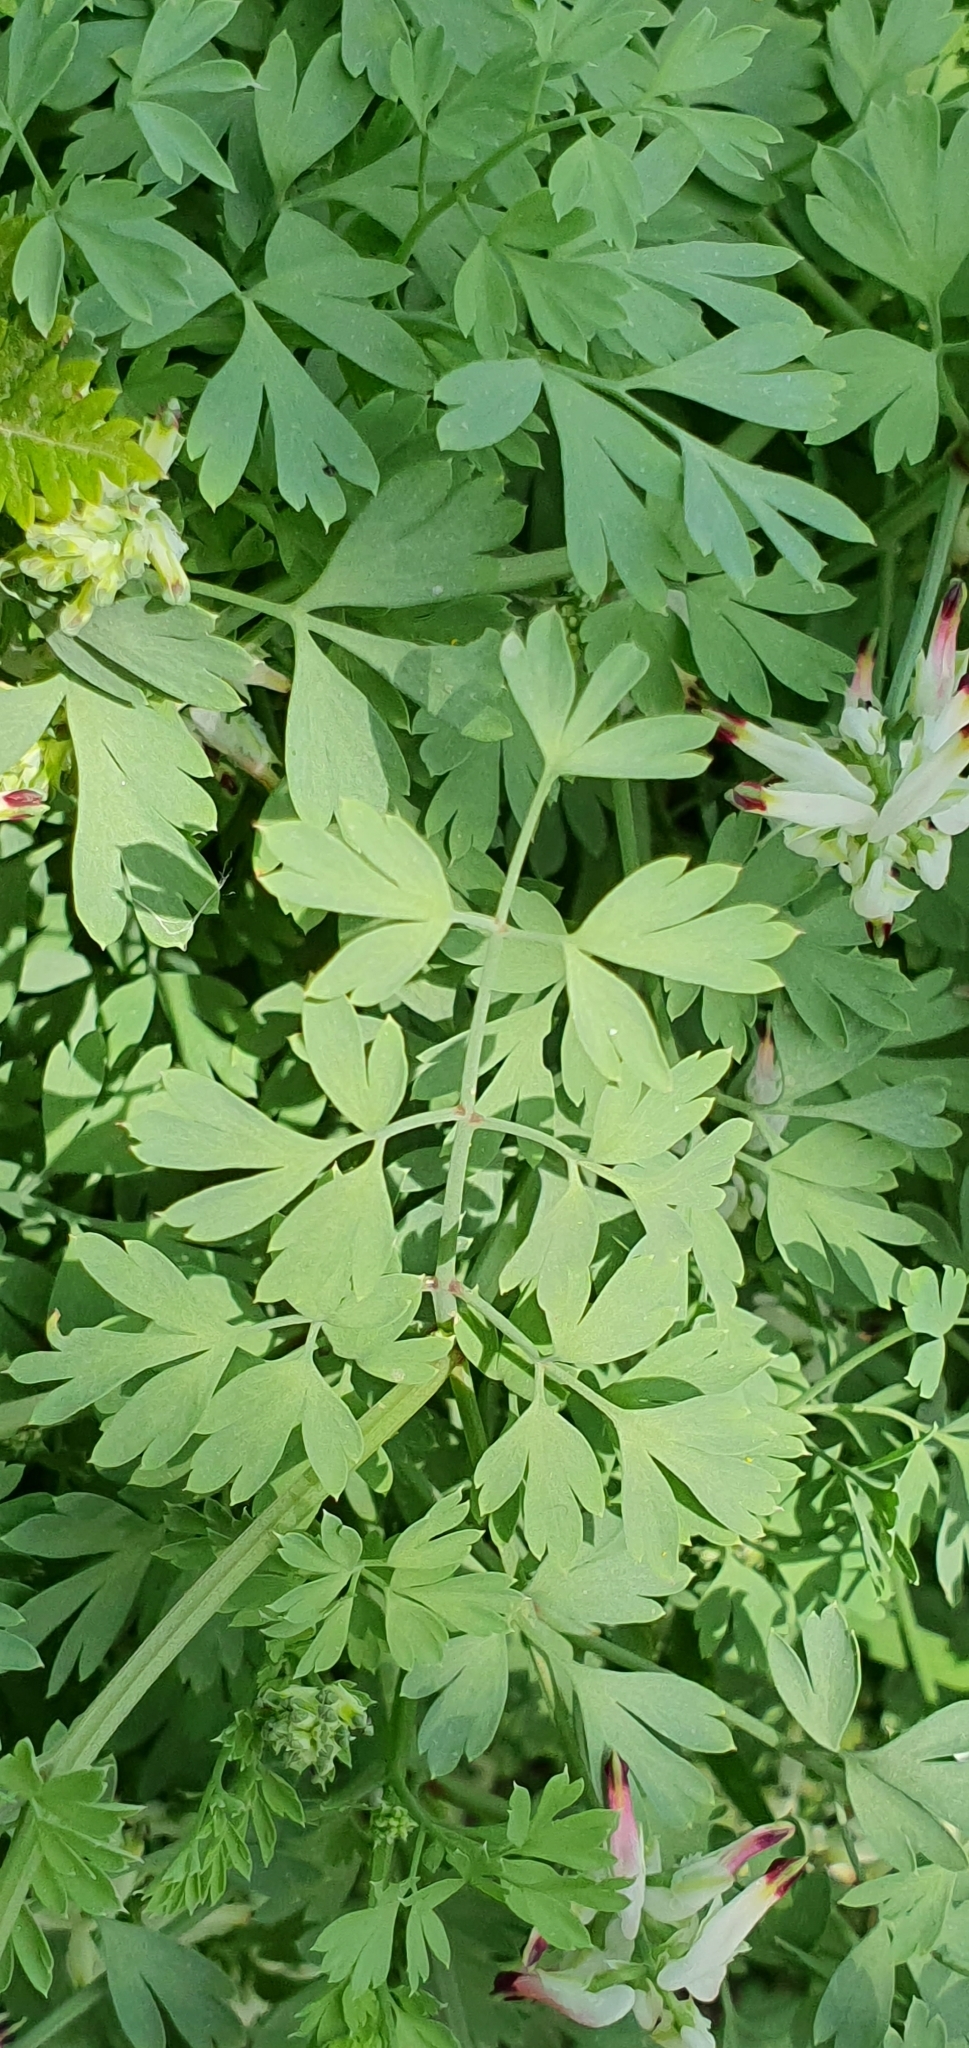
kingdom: Plantae
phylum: Tracheophyta
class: Magnoliopsida
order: Ranunculales
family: Papaveraceae
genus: Fumaria
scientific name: Fumaria capreolata
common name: White ramping-fumitory
